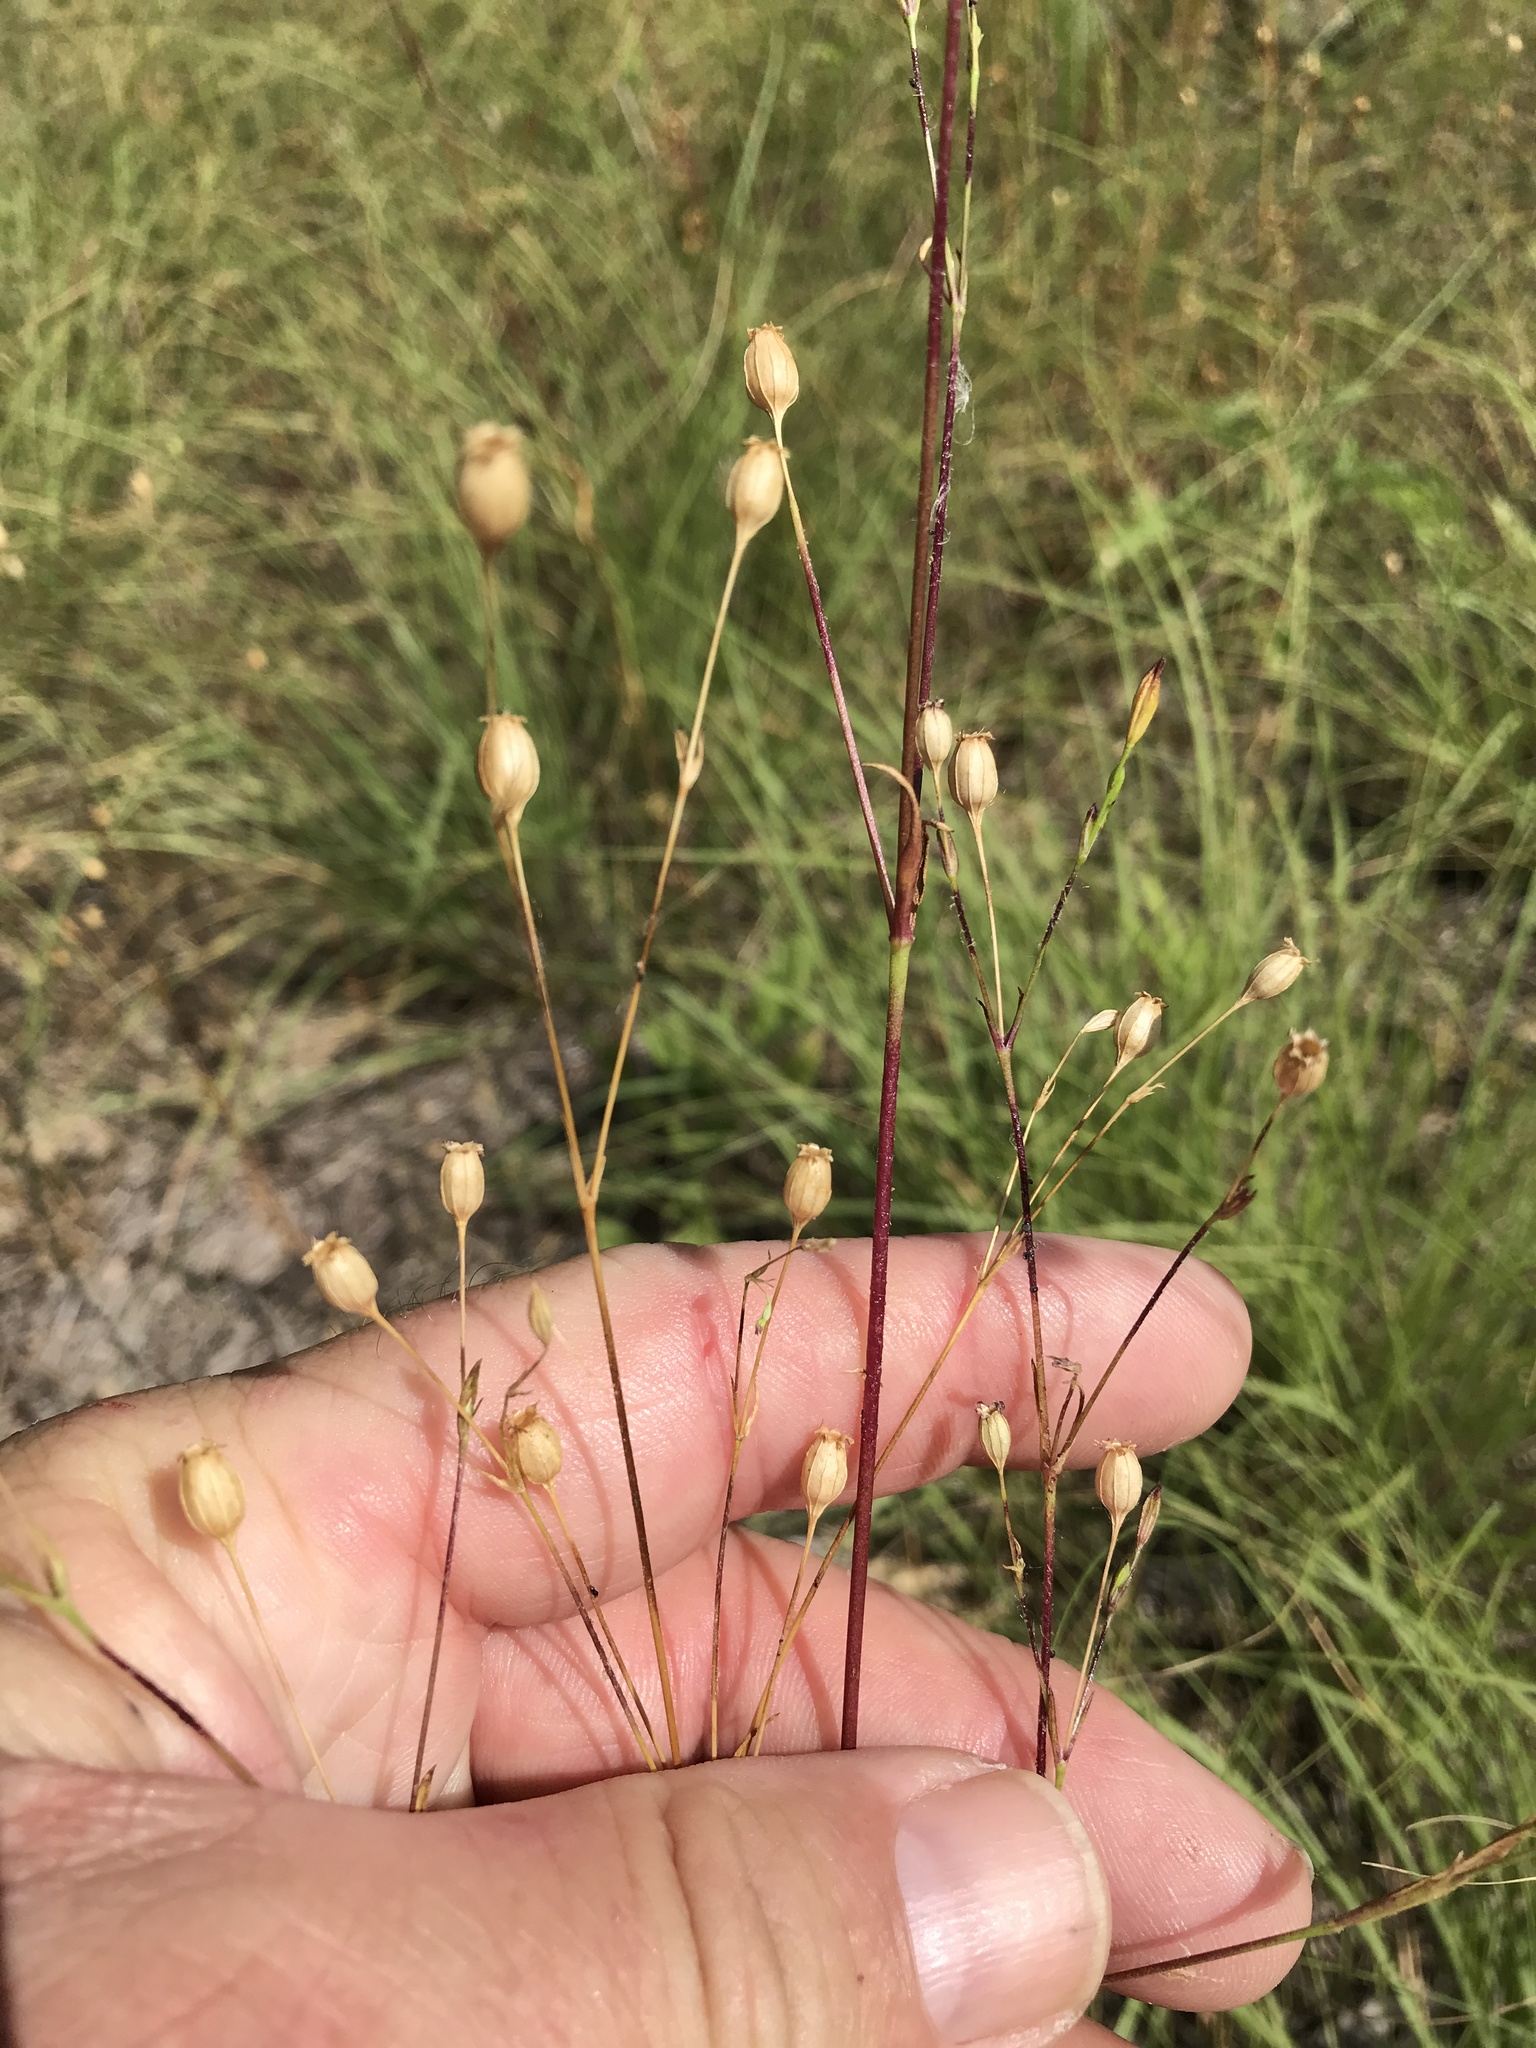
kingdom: Plantae
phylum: Tracheophyta
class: Magnoliopsida
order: Caryophyllales
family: Caryophyllaceae
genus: Silene
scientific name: Silene antirrhina
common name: Sleepy catchfly
